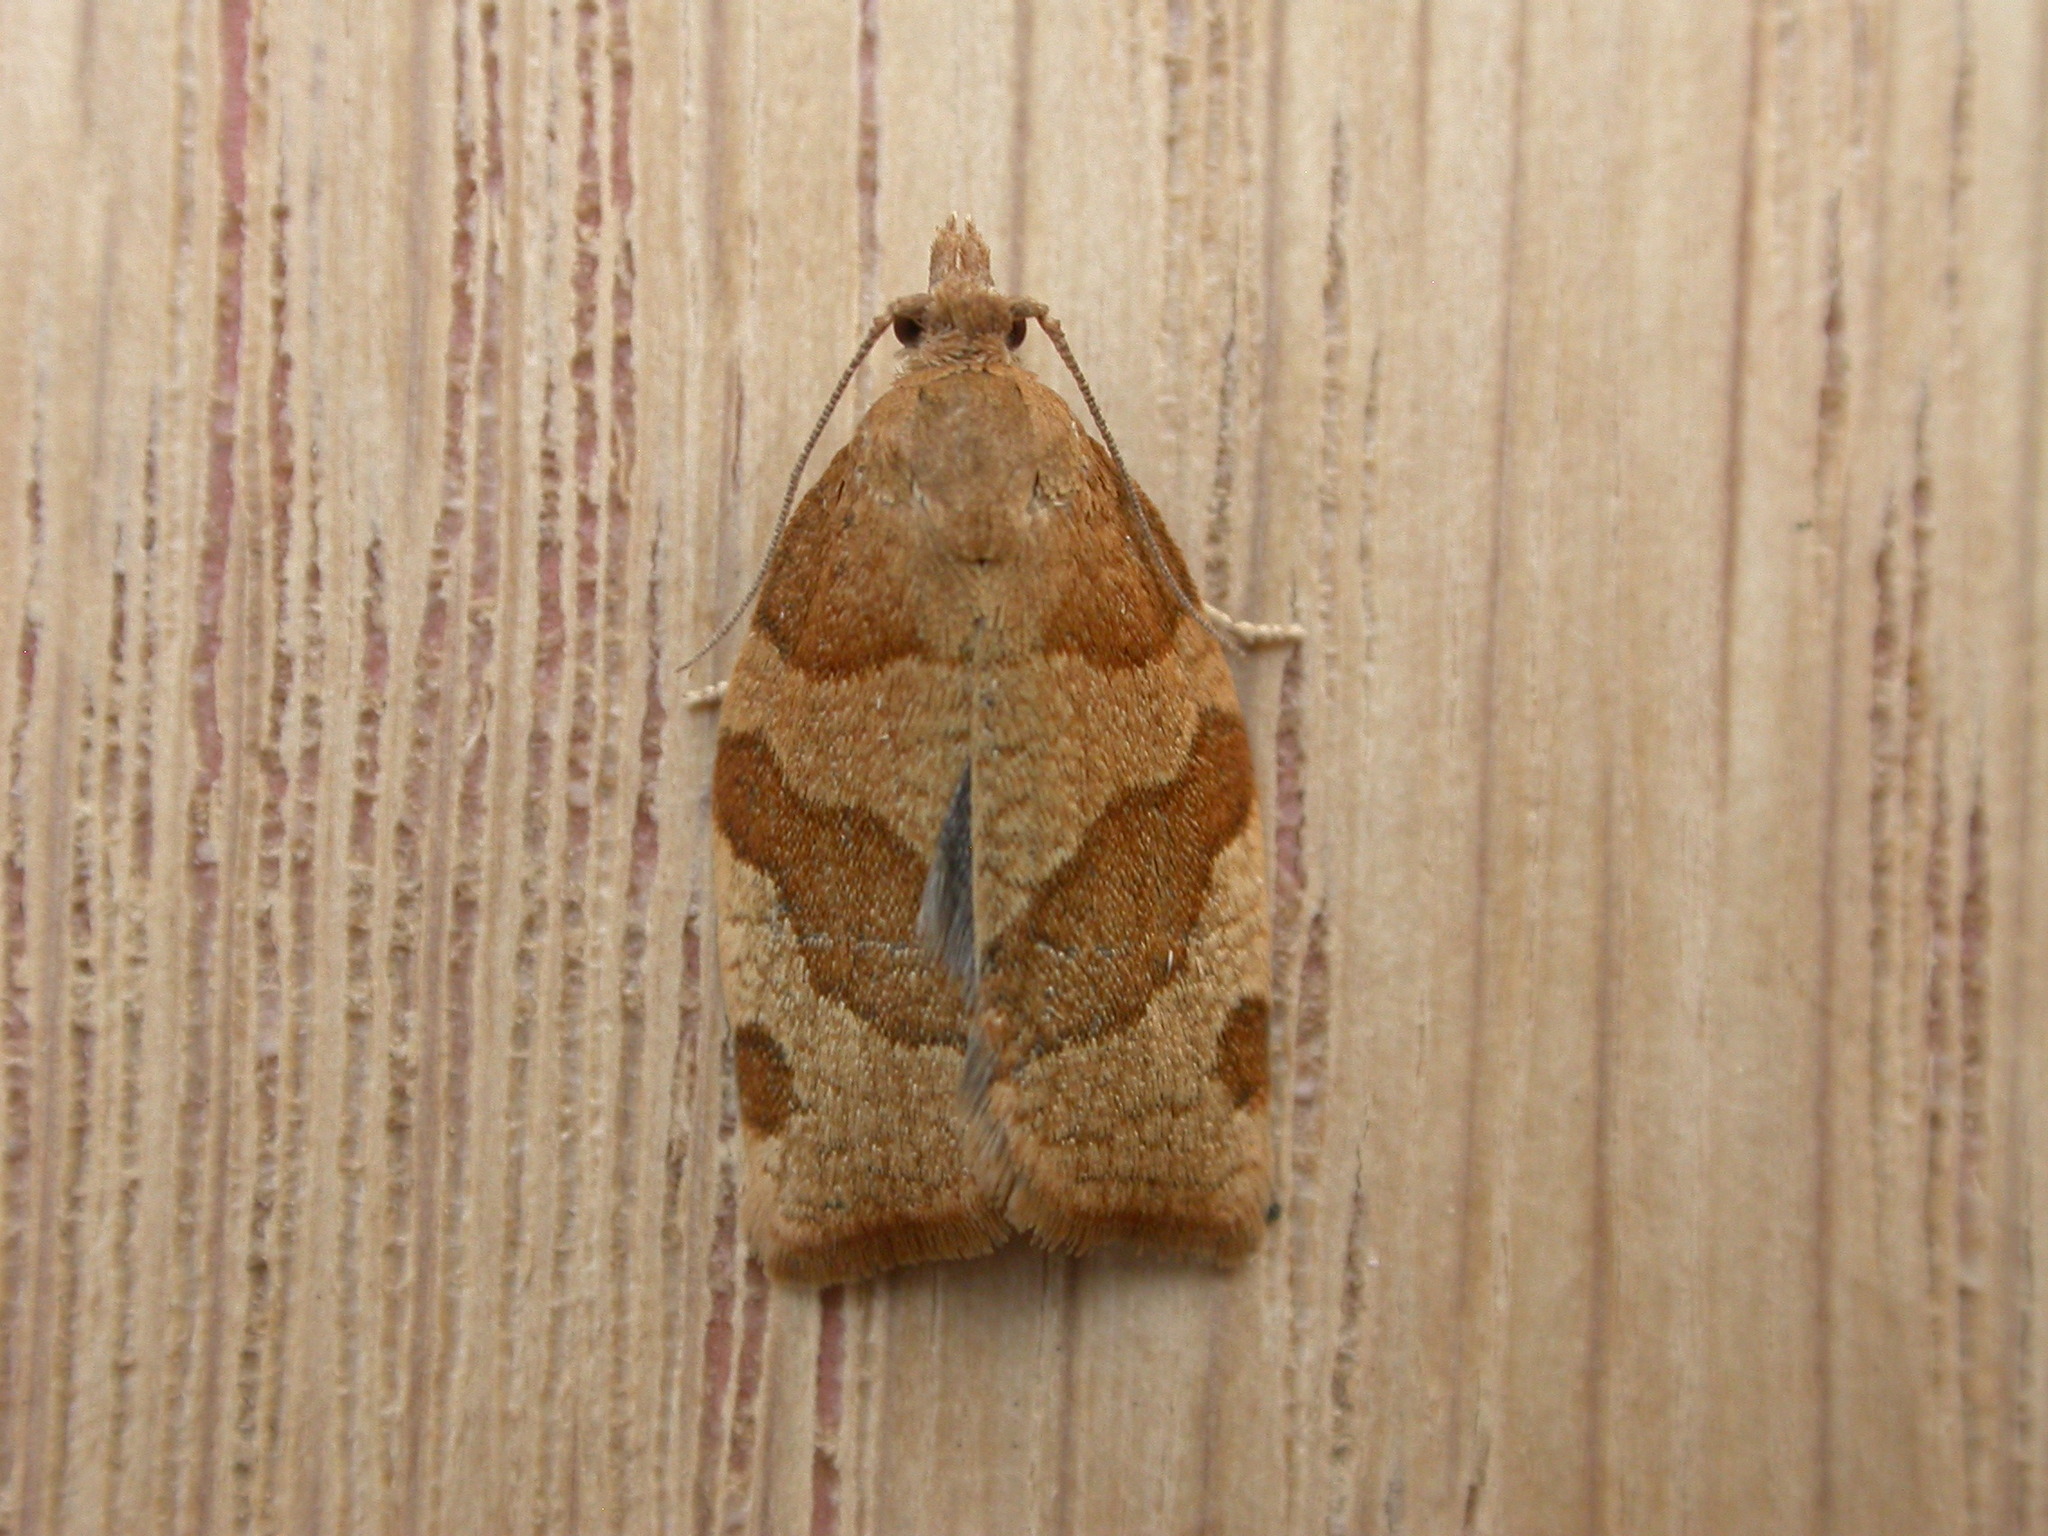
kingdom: Animalia
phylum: Arthropoda
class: Insecta
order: Lepidoptera
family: Tortricidae
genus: Pandemis
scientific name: Pandemis cerasana
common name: Barred fruit-tree tortrix
